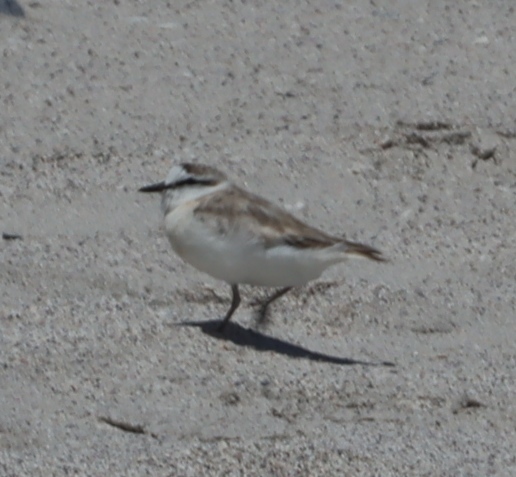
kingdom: Animalia
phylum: Chordata
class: Aves
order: Charadriiformes
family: Charadriidae
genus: Anarhynchus
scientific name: Anarhynchus
